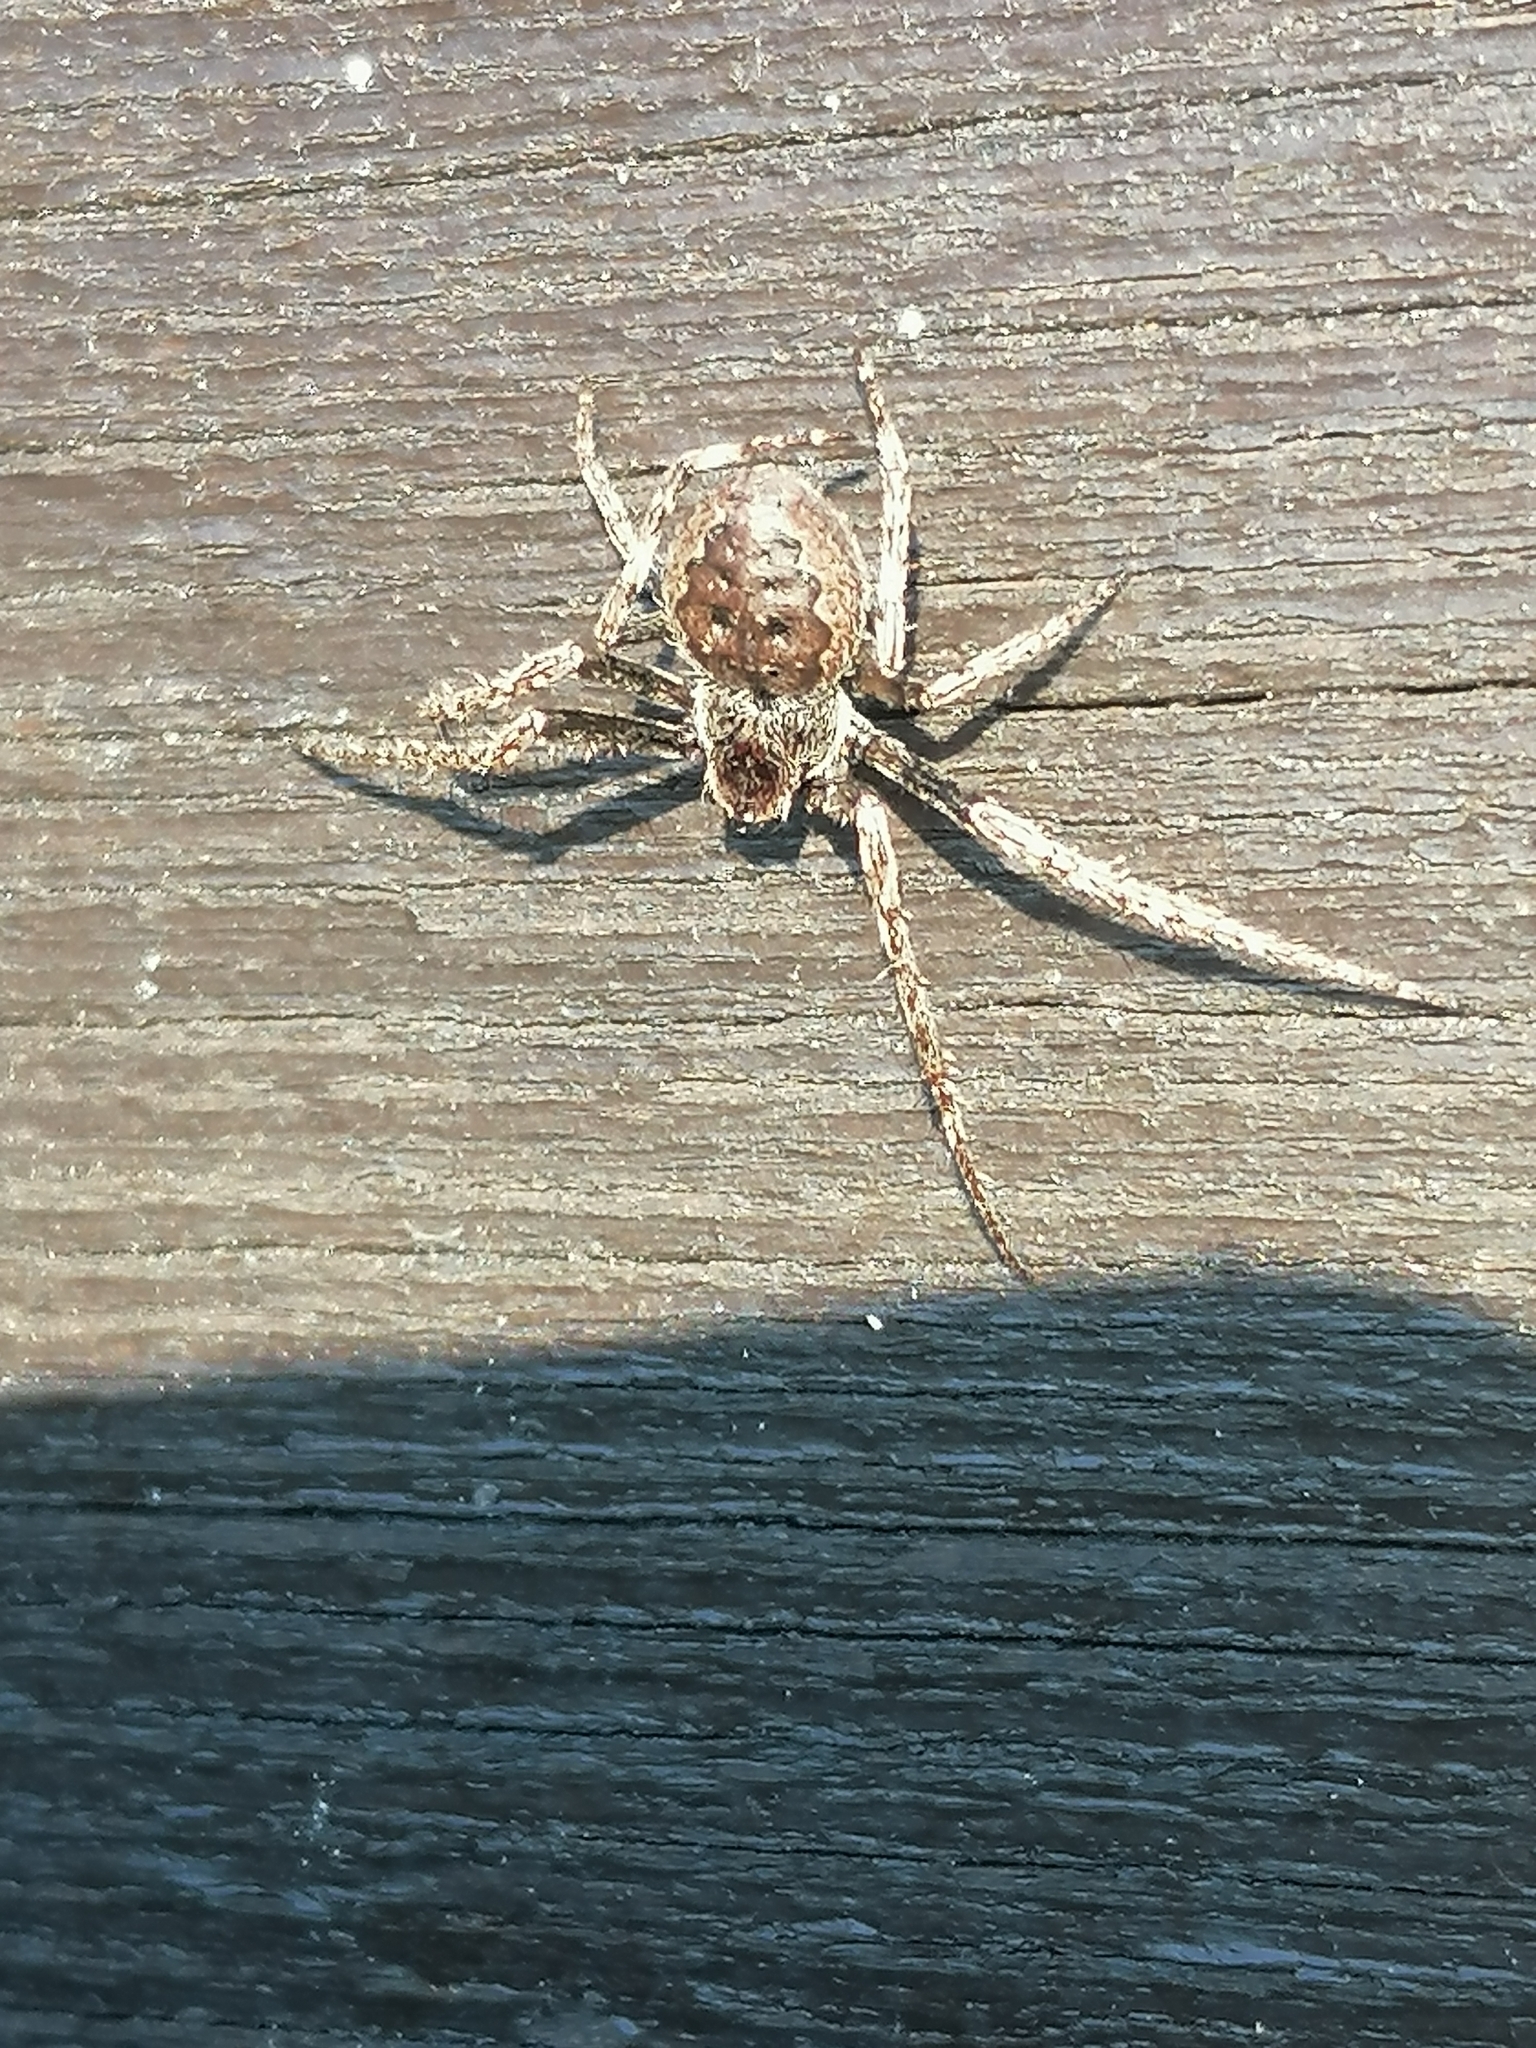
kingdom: Animalia
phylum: Arthropoda
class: Arachnida
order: Araneae
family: Araneidae
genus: Nuctenea
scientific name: Nuctenea umbratica
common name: Toad spider
